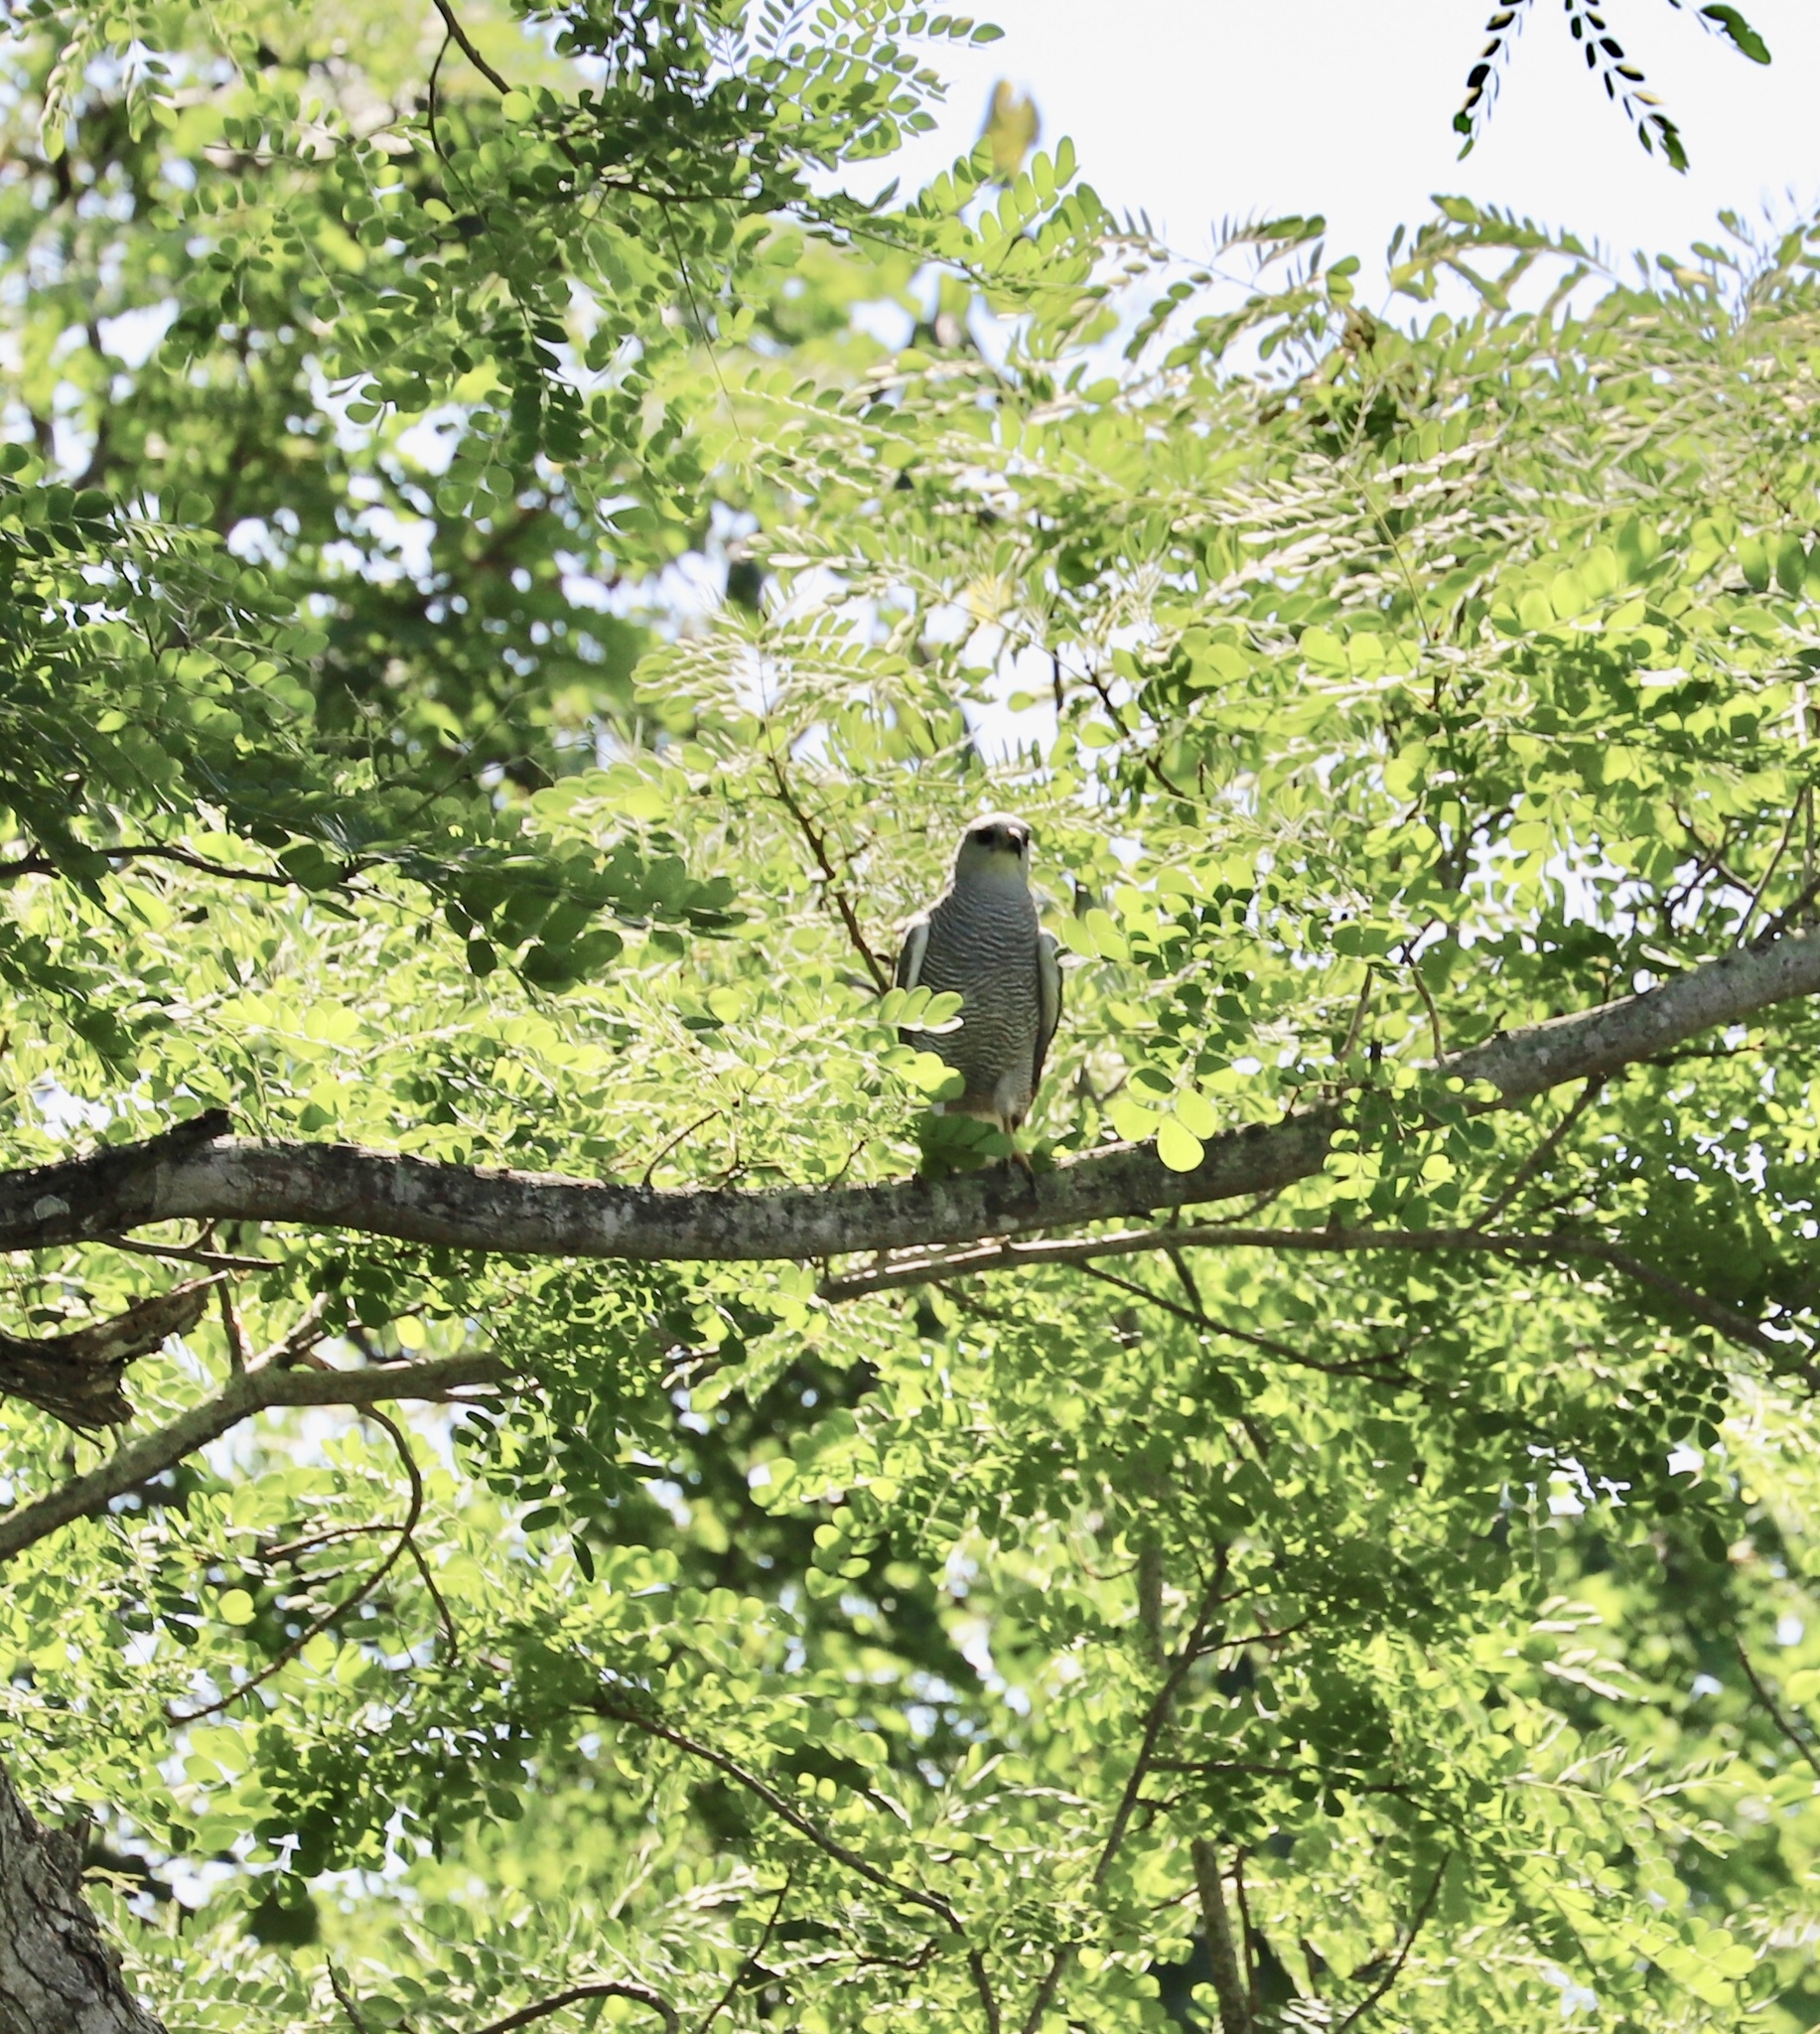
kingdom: Animalia
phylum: Chordata
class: Aves
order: Accipitriformes
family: Accipitridae
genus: Buteo
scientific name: Buteo nitidus
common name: Grey-lined hawk
